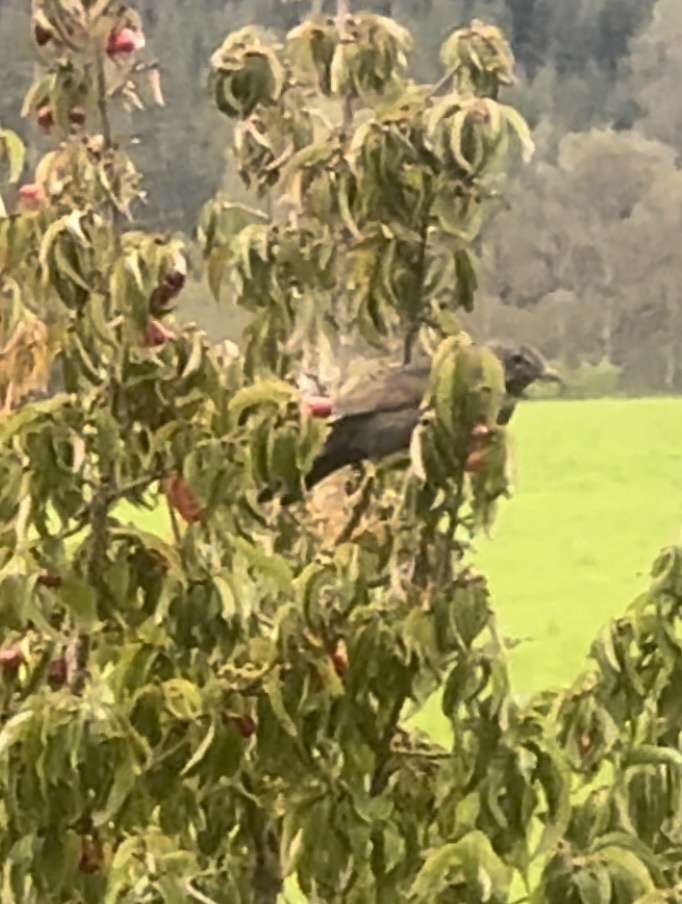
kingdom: Animalia
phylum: Chordata
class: Aves
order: Passeriformes
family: Turdidae
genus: Turdus
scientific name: Turdus merula
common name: Common blackbird
